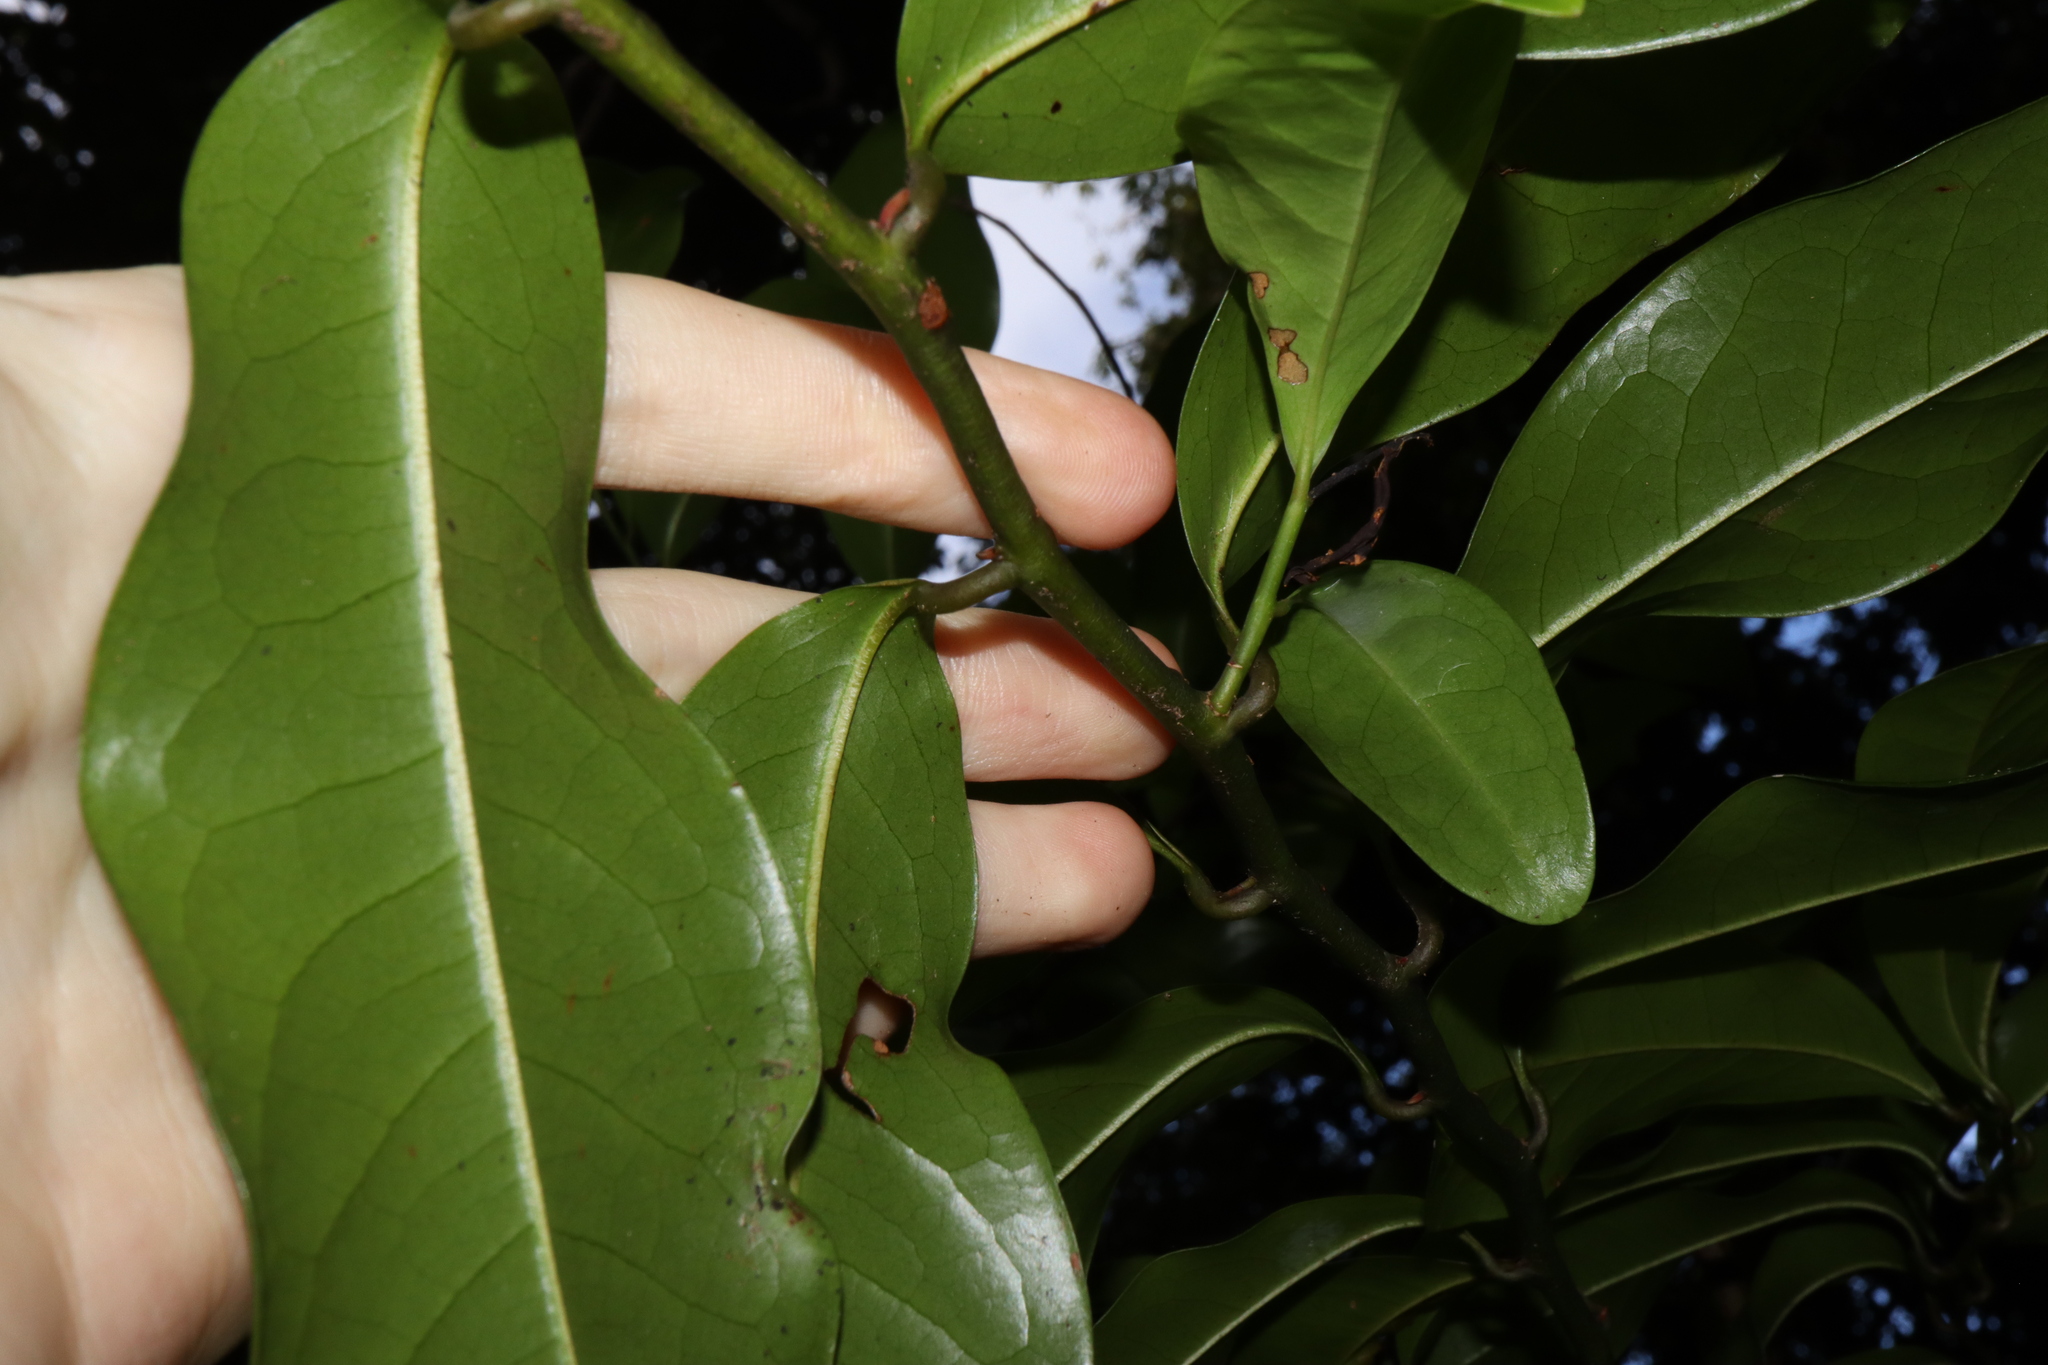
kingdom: Plantae
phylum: Tracheophyta
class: Magnoliopsida
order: Magnoliales
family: Eupomatiaceae
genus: Eupomatia
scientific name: Eupomatia laurina
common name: Bolwarra
